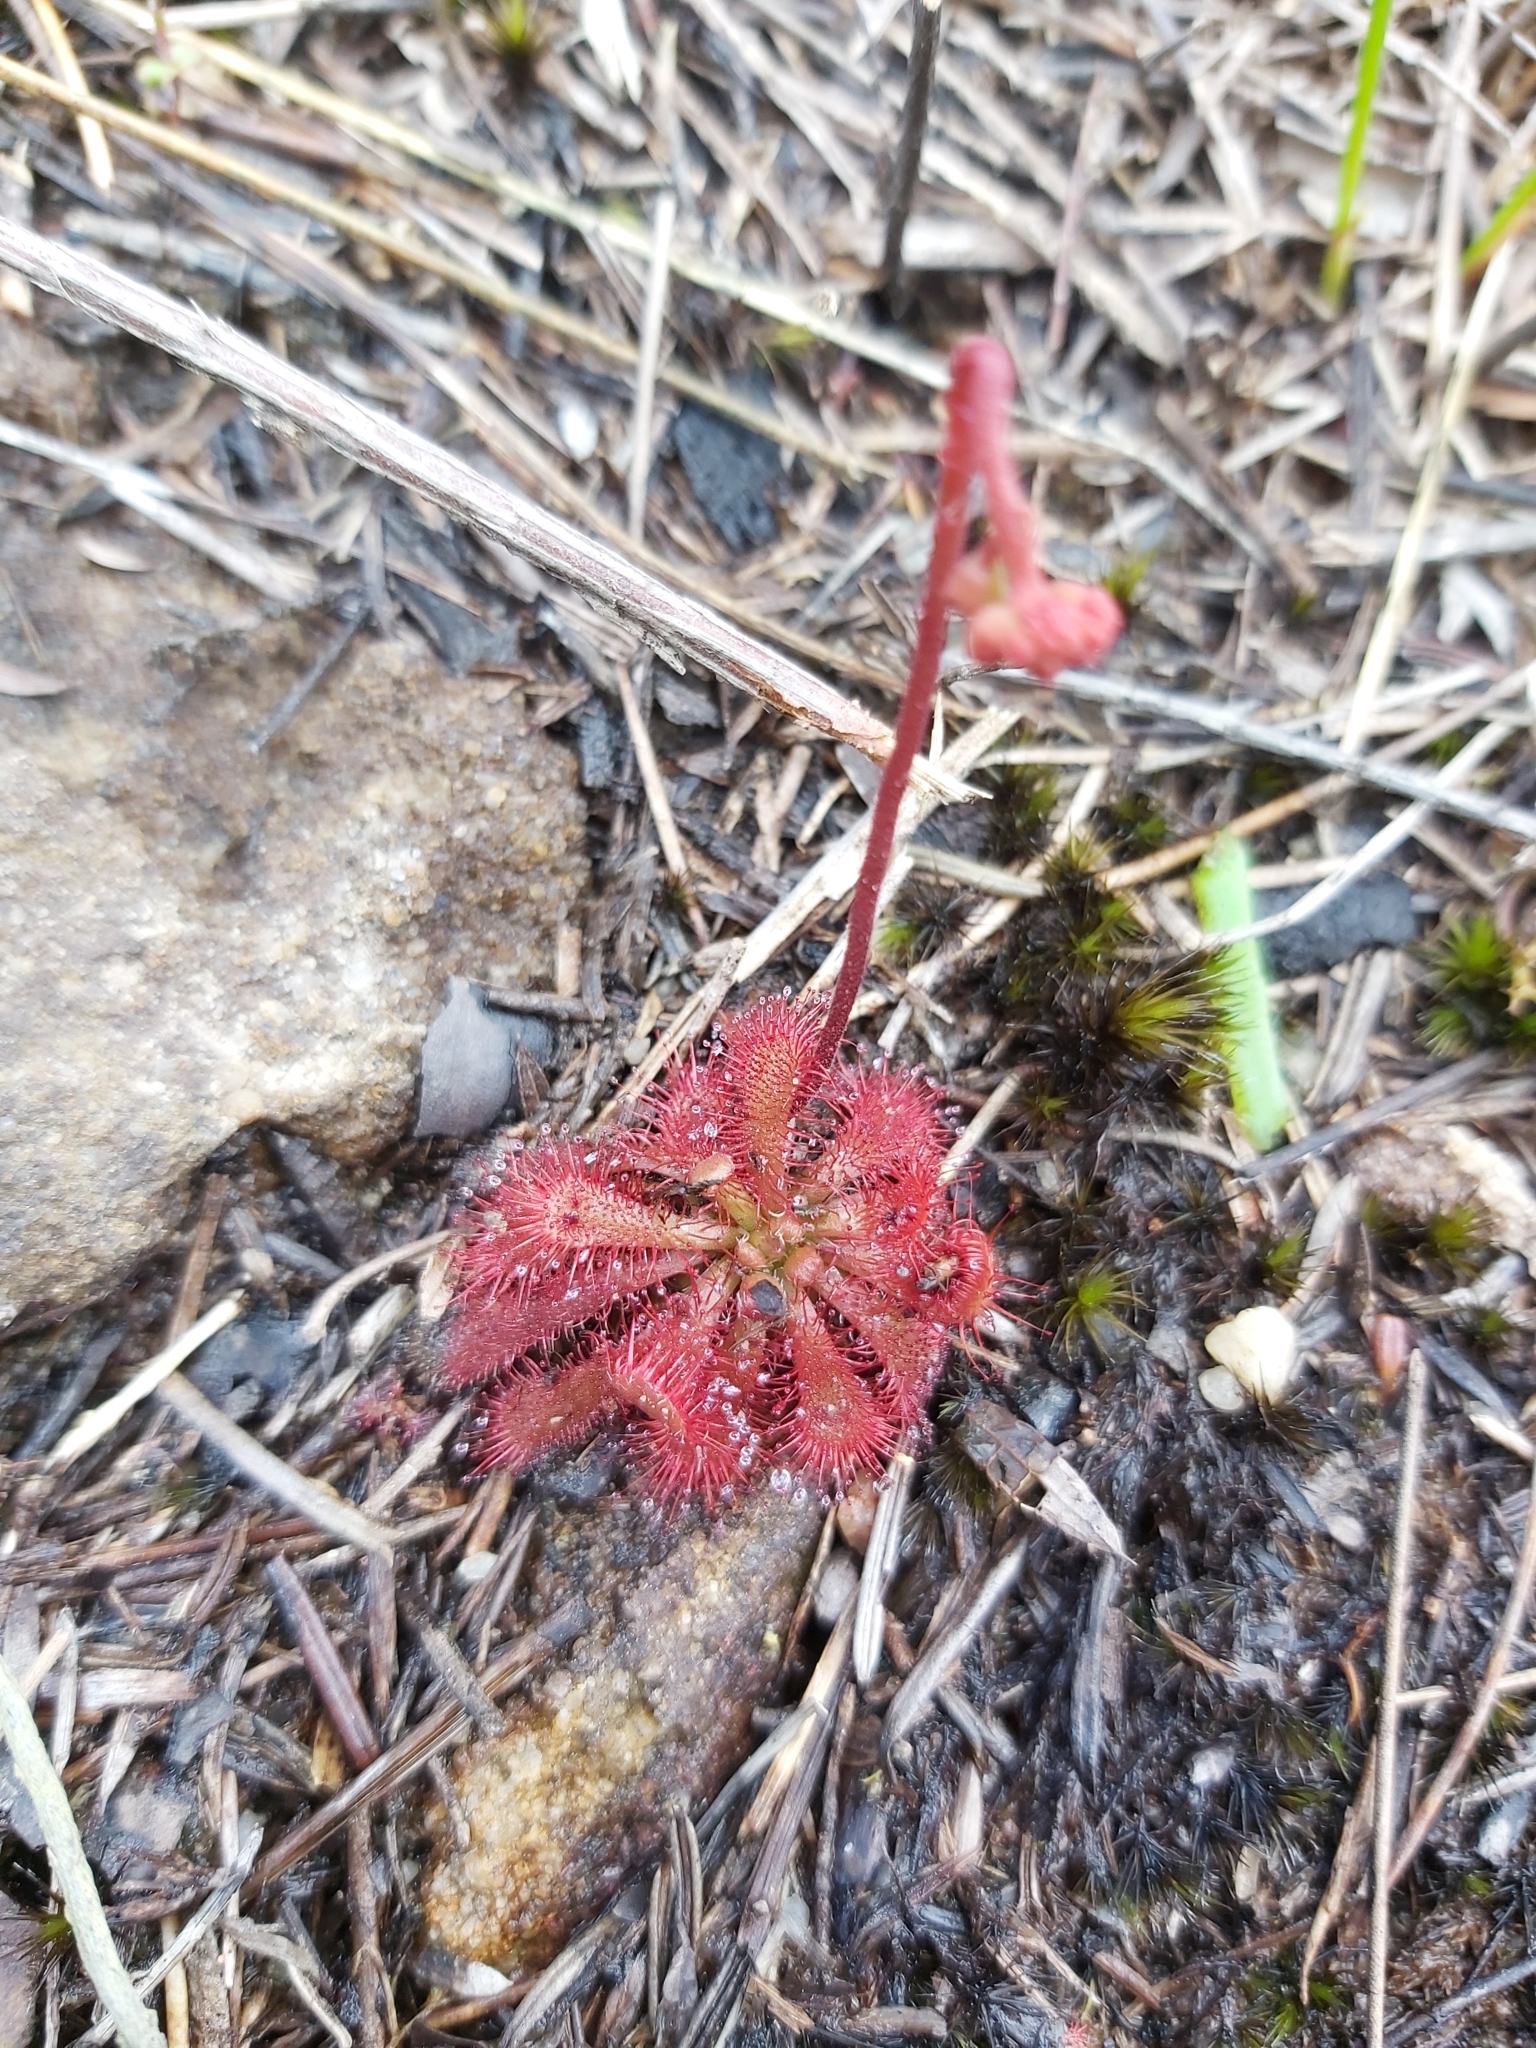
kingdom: Plantae
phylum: Tracheophyta
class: Magnoliopsida
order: Caryophyllales
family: Droseraceae
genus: Drosera
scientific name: Drosera spatulata
